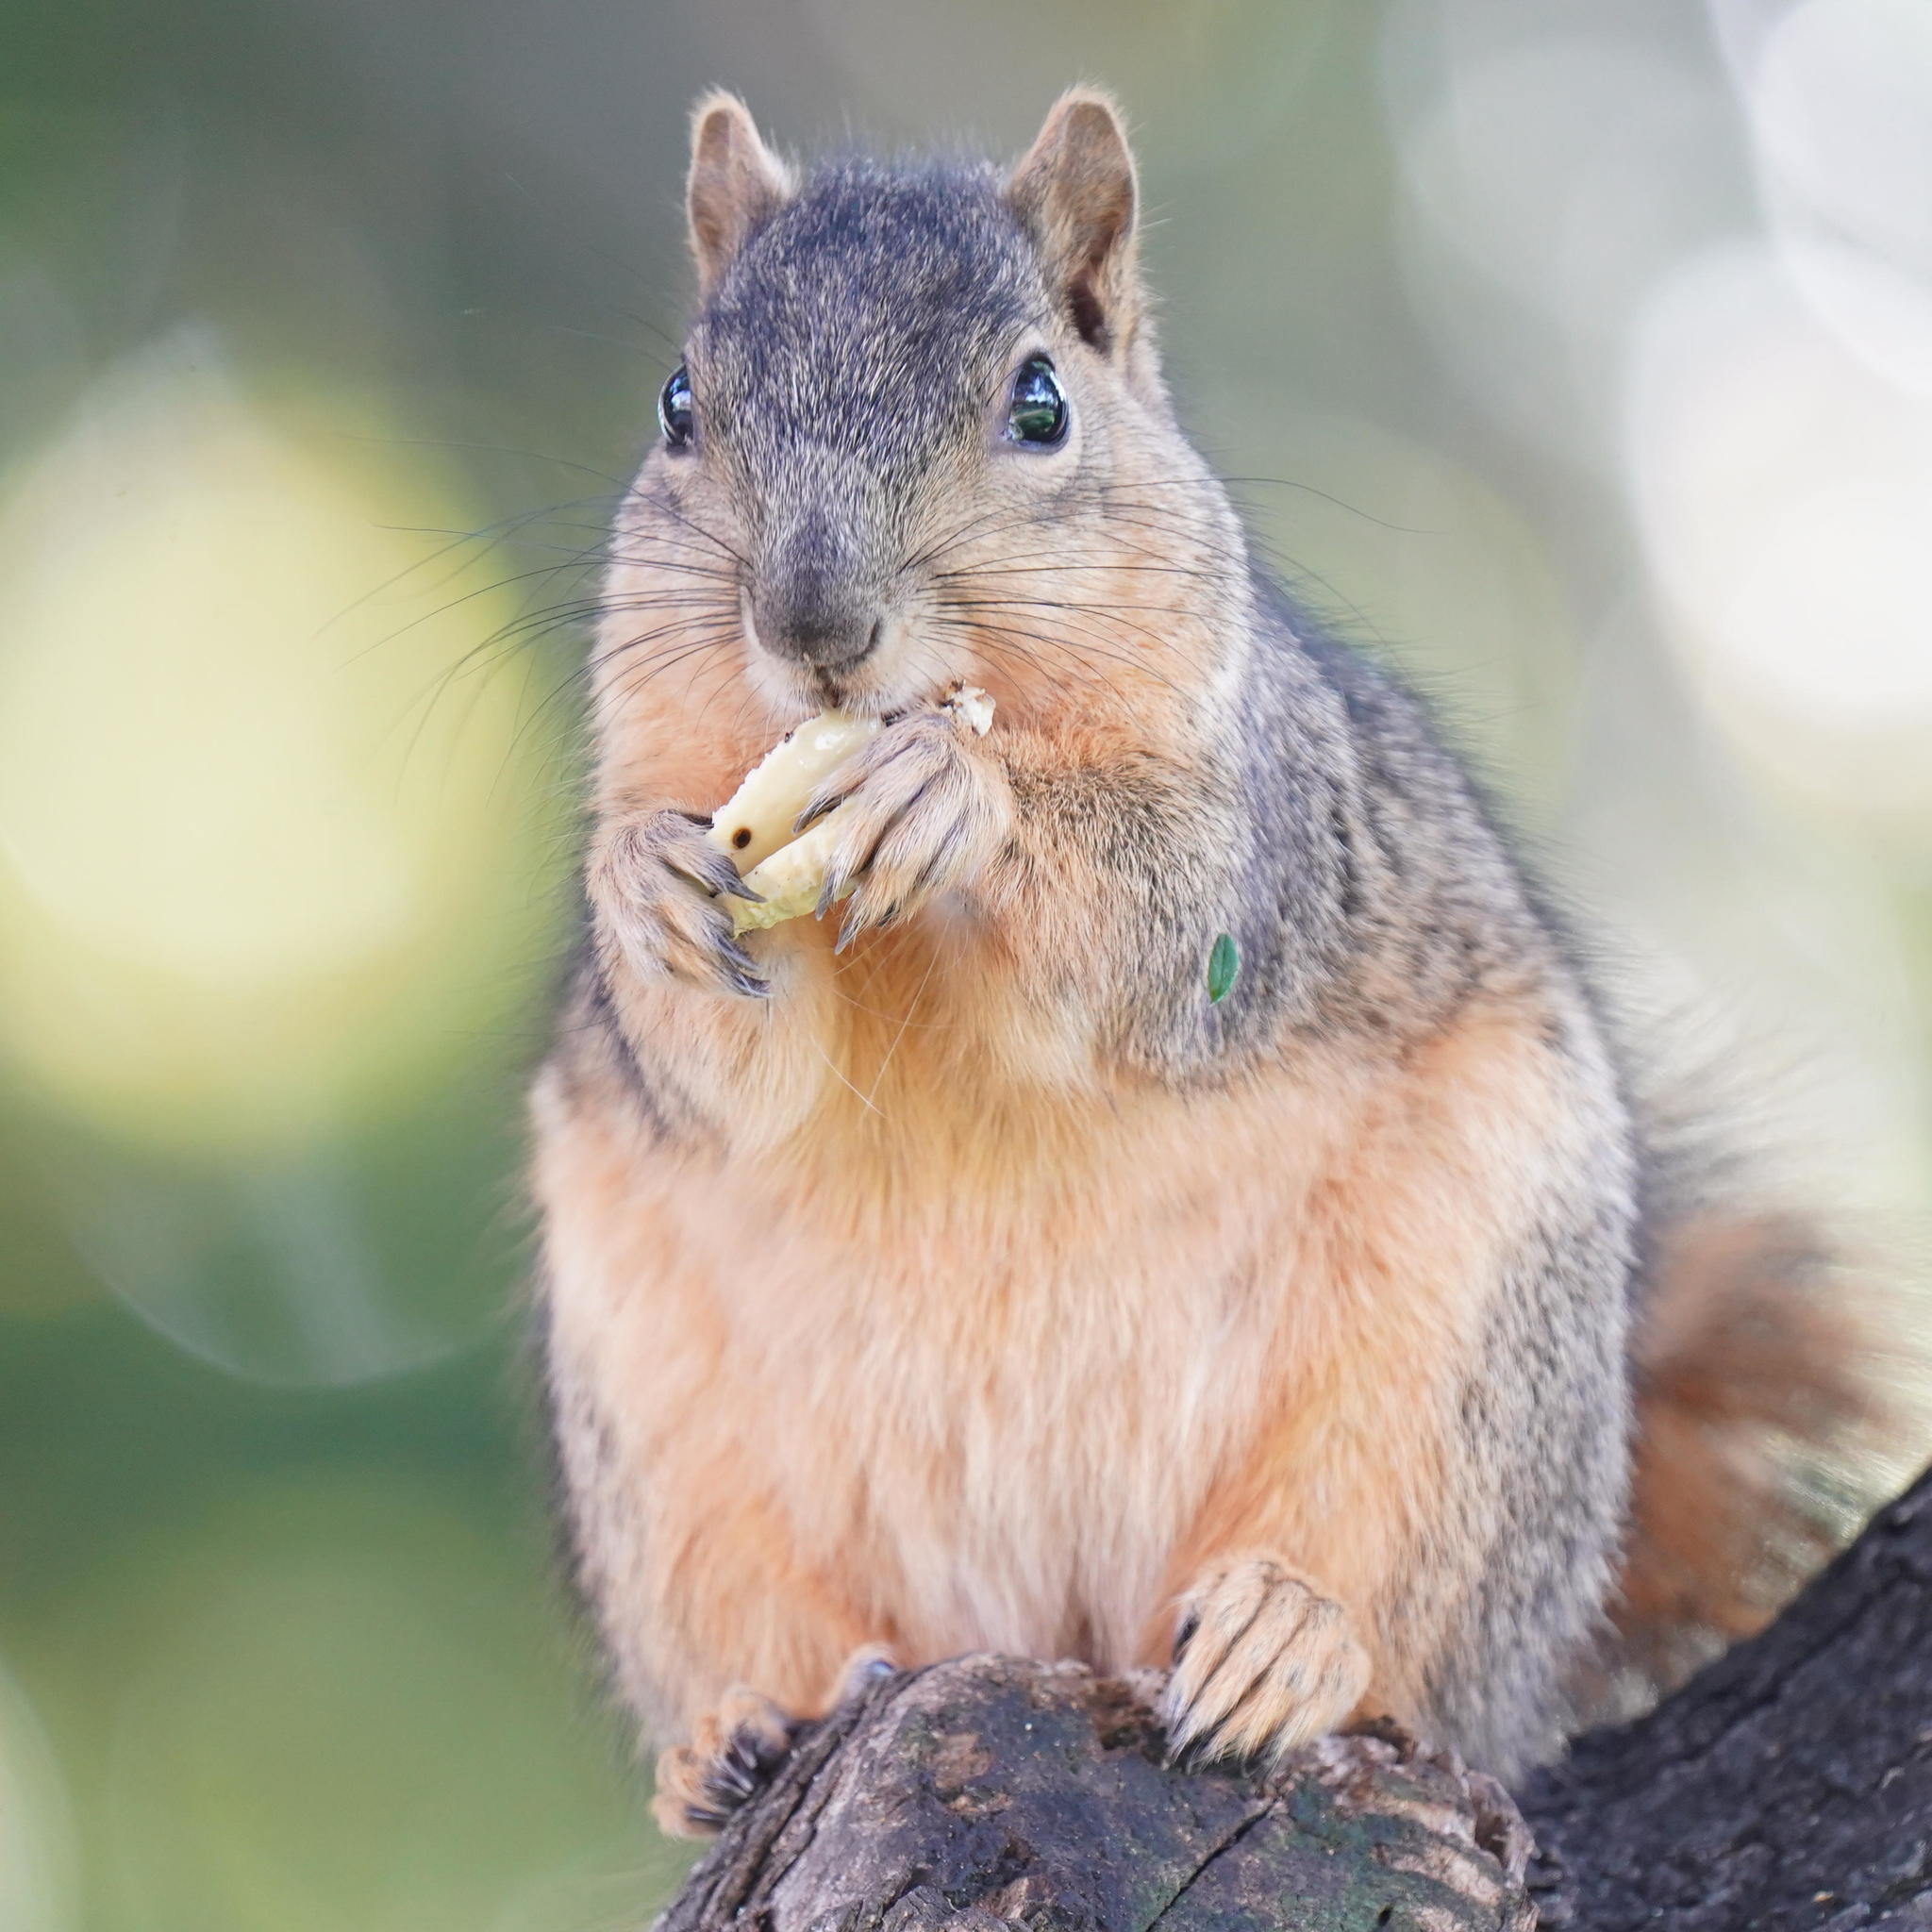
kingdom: Animalia
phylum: Chordata
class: Mammalia
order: Rodentia
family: Sciuridae
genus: Sciurus
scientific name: Sciurus niger
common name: Fox squirrel
